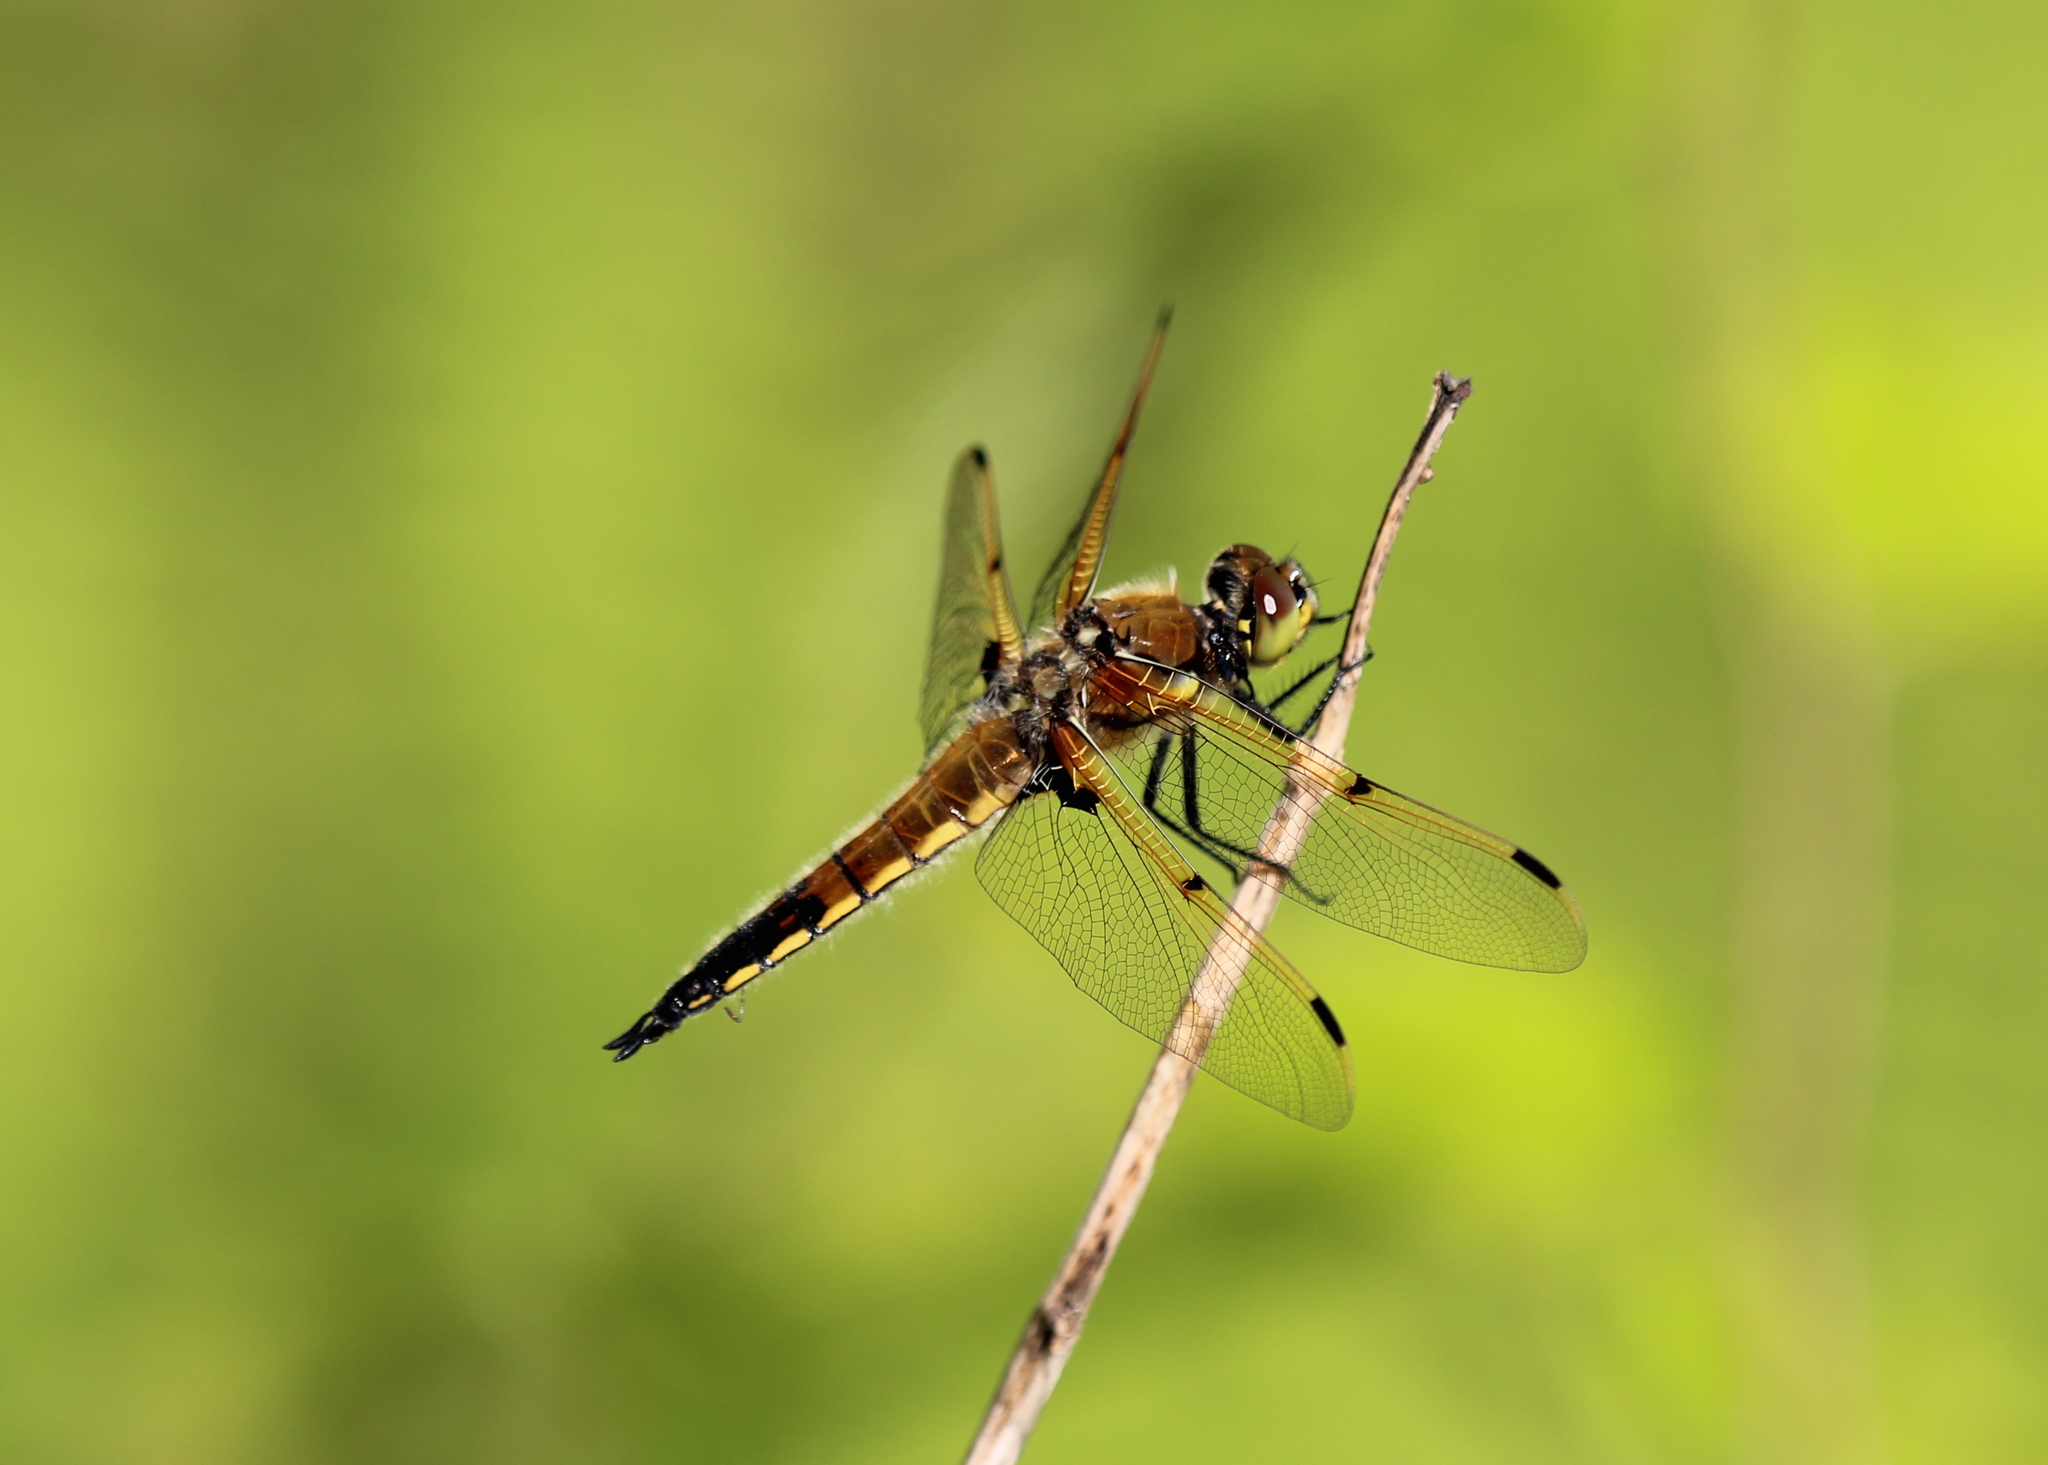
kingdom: Animalia
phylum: Arthropoda
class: Insecta
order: Odonata
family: Libellulidae
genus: Libellula
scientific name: Libellula quadrimaculata
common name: Four-spotted chaser
